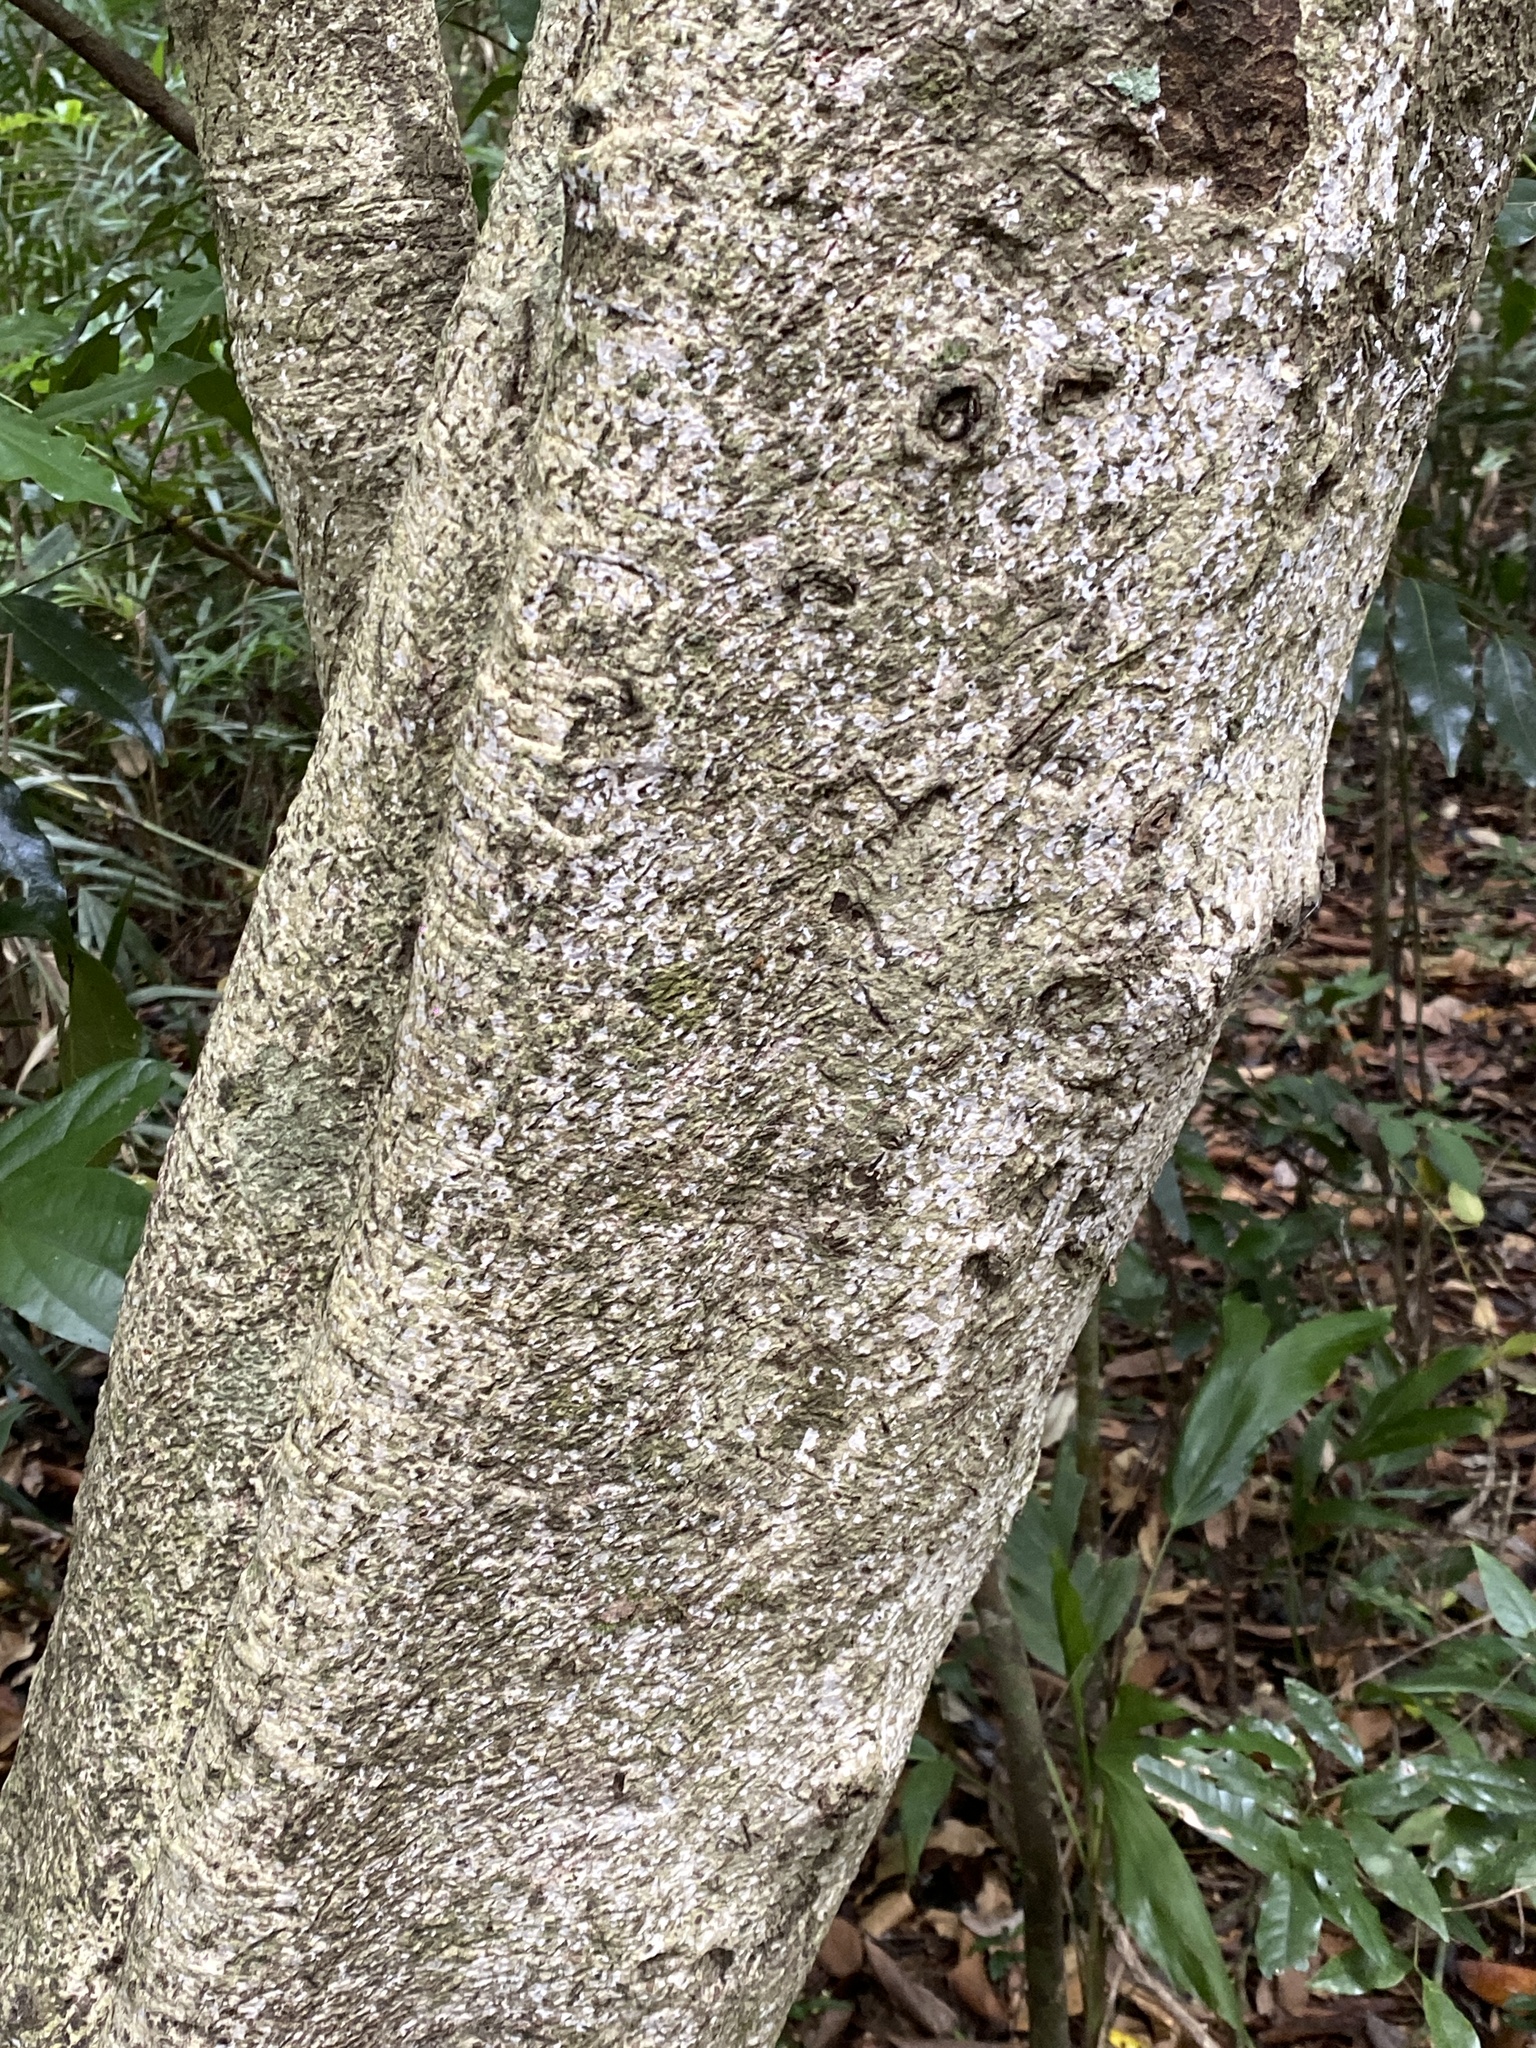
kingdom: Plantae
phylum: Tracheophyta
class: Magnoliopsida
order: Laurales
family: Lauraceae
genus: Endiandra
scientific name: Endiandra pubens
